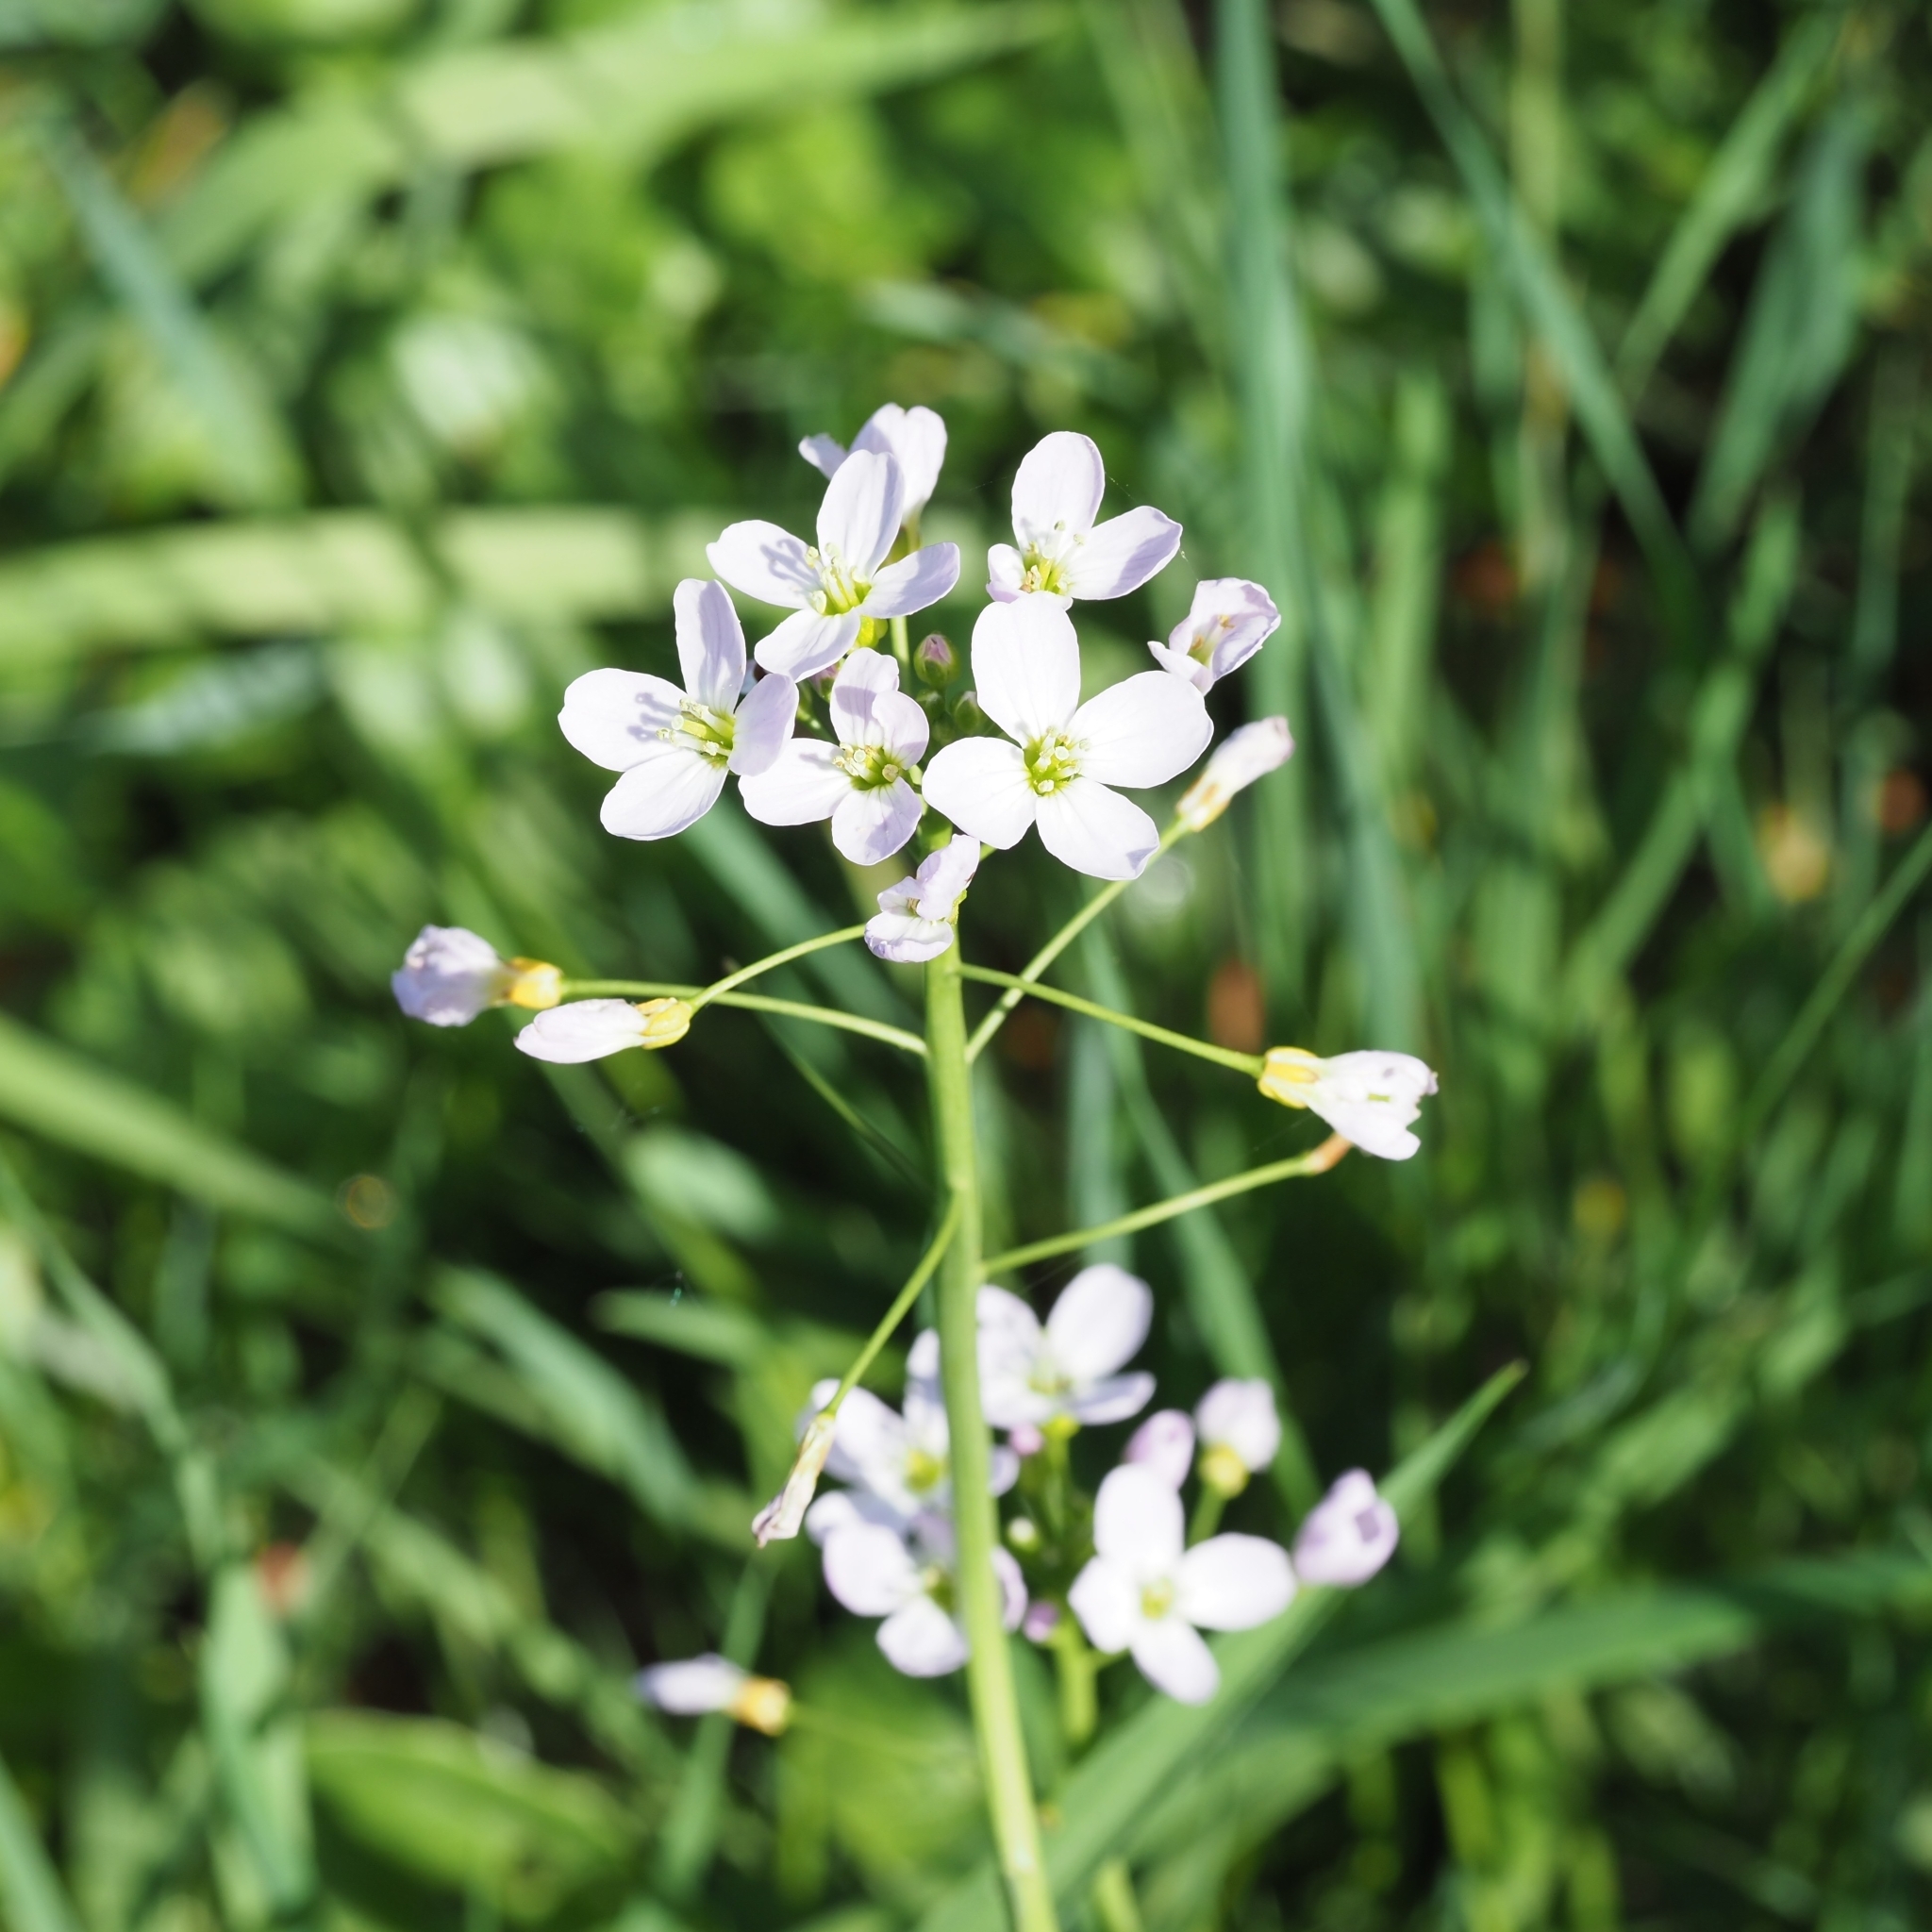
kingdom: Plantae
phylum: Tracheophyta
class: Magnoliopsida
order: Brassicales
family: Brassicaceae
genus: Cardamine
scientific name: Cardamine pratensis
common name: Cuckoo flower
